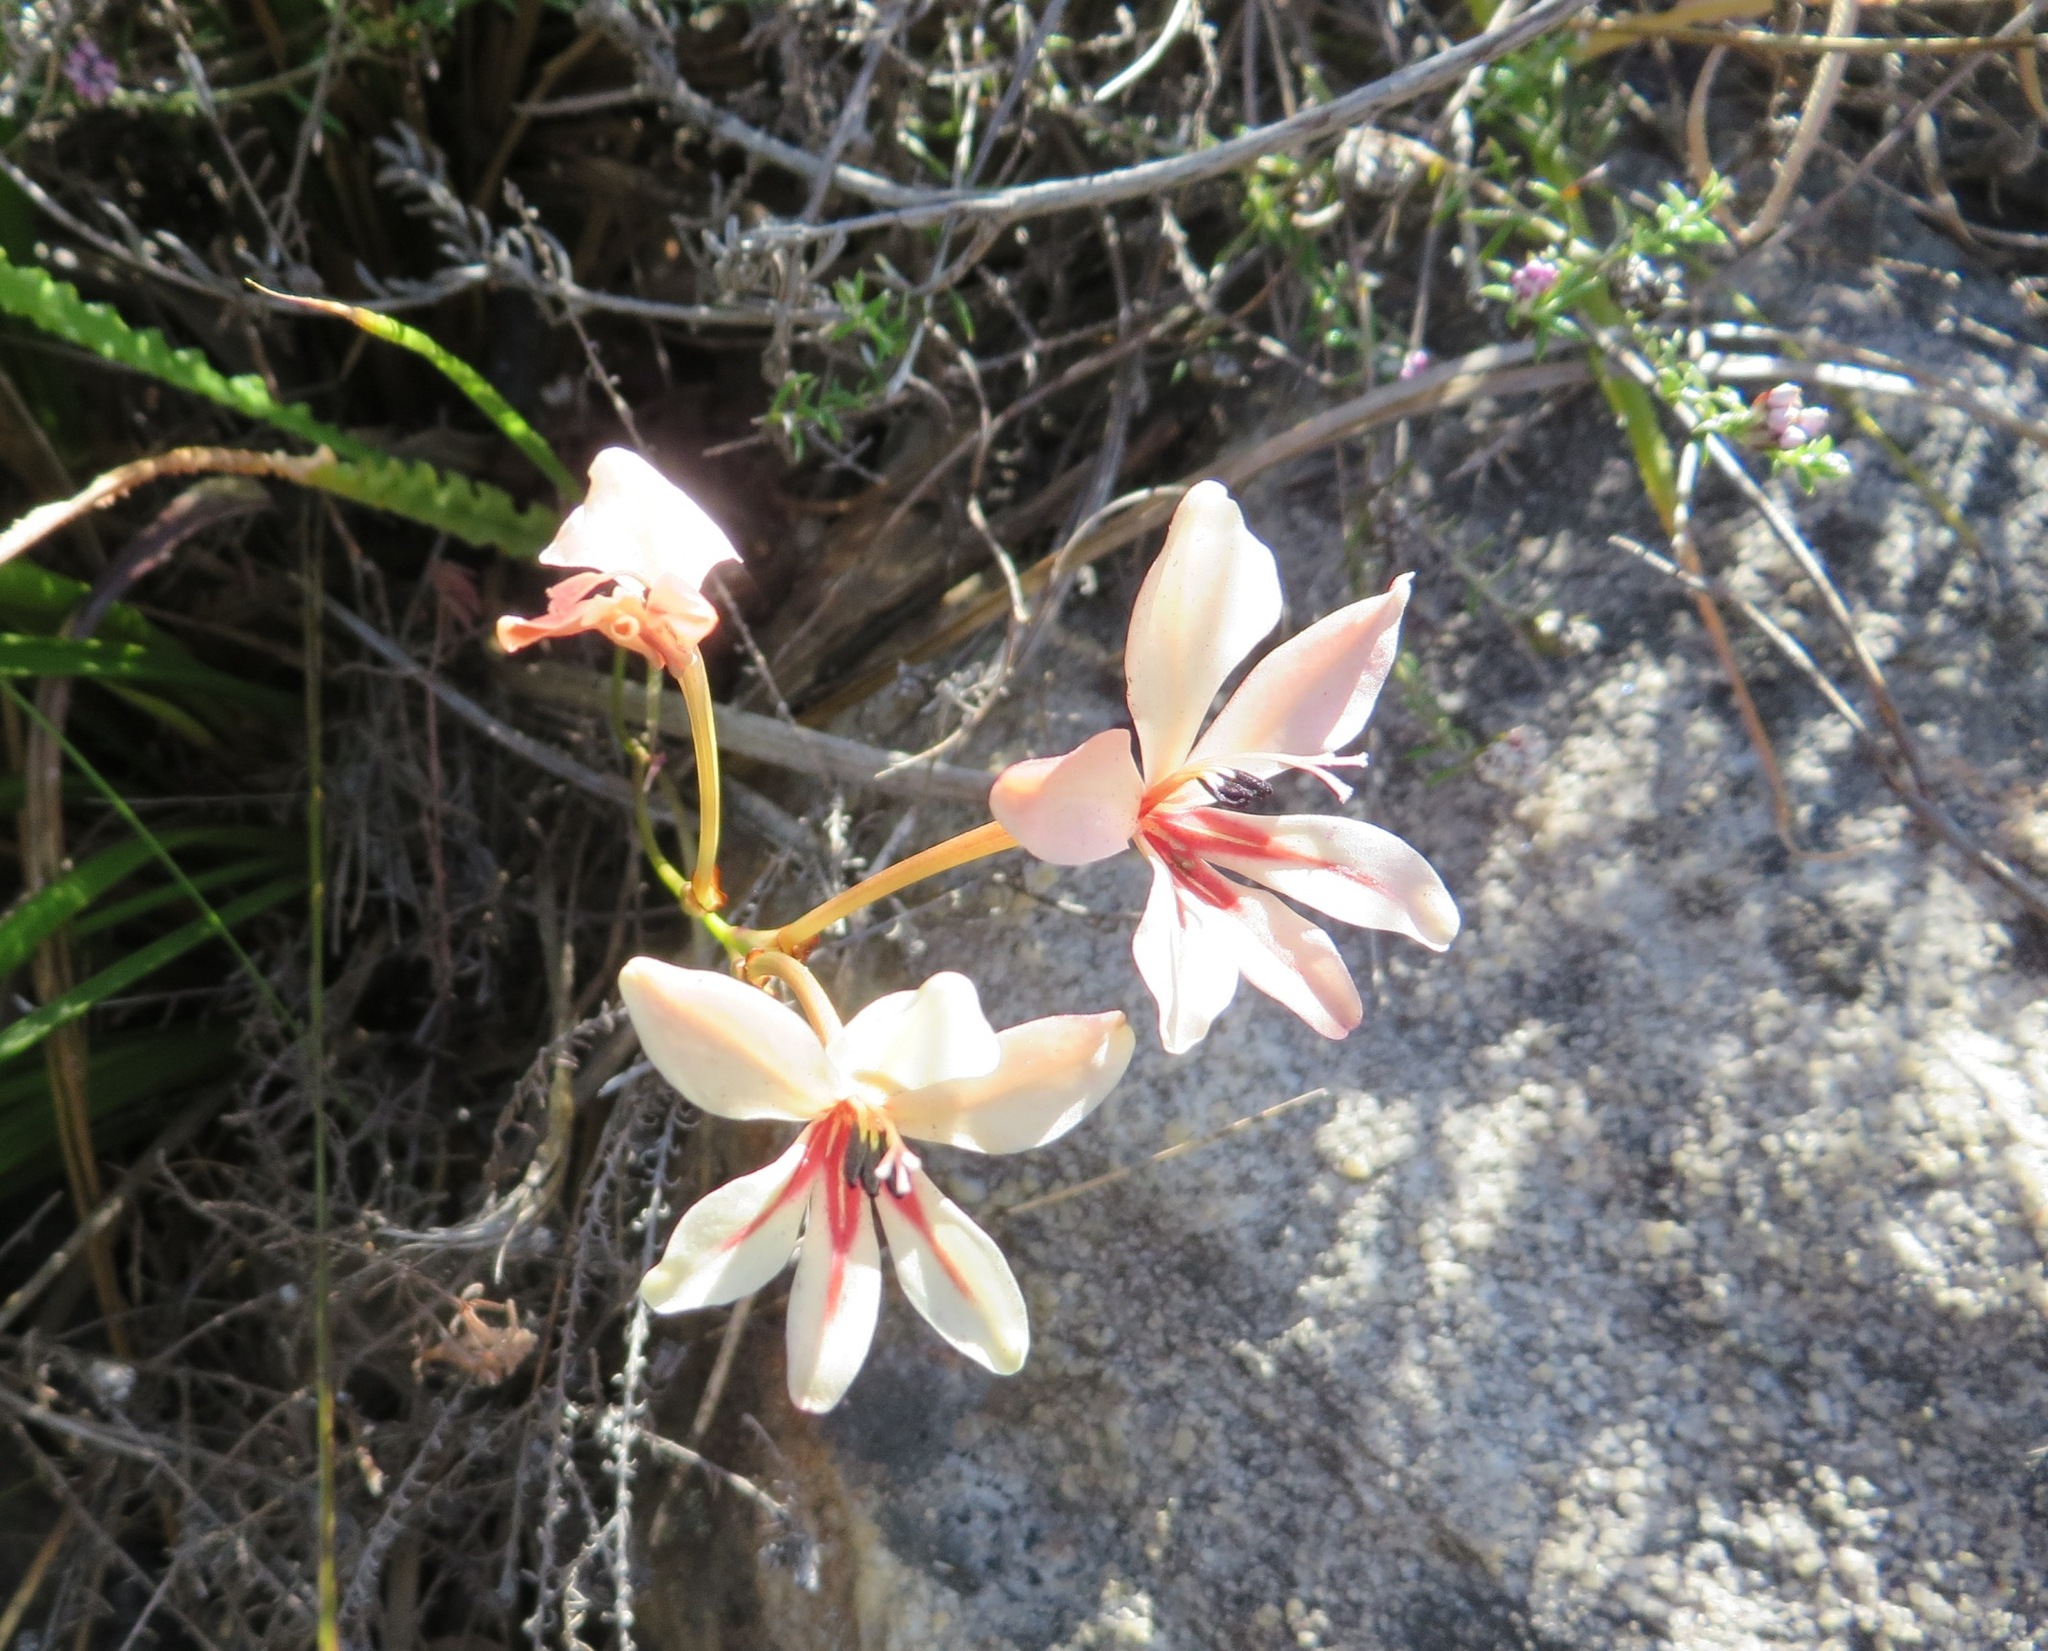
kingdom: Plantae
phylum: Tracheophyta
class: Liliopsida
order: Asparagales
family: Iridaceae
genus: Tritonia
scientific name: Tritonia undulata
